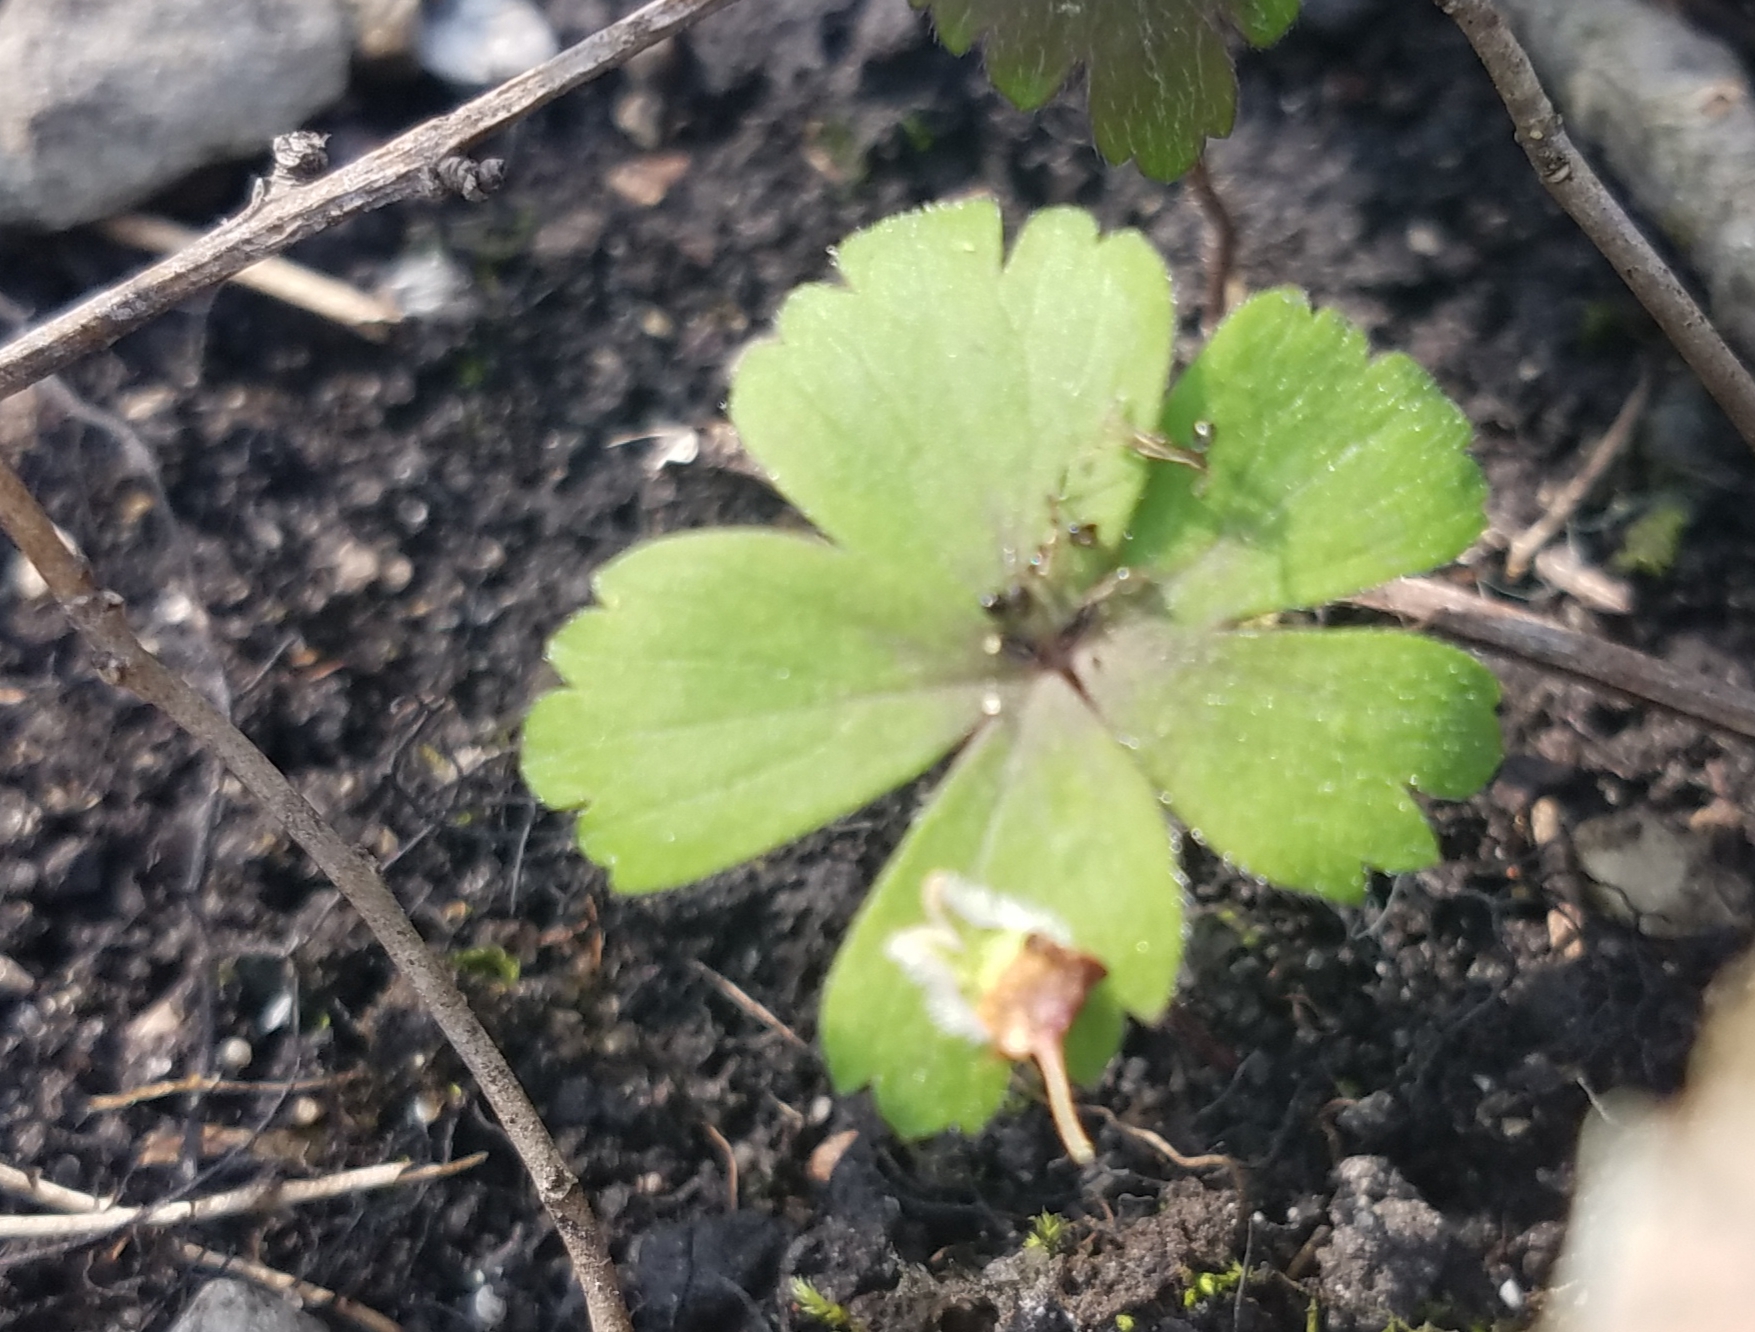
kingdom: Plantae
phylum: Tracheophyta
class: Magnoliopsida
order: Ranunculales
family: Ranunculaceae
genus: Anemone
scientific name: Anemone quinquefolia
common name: Wood anemone
